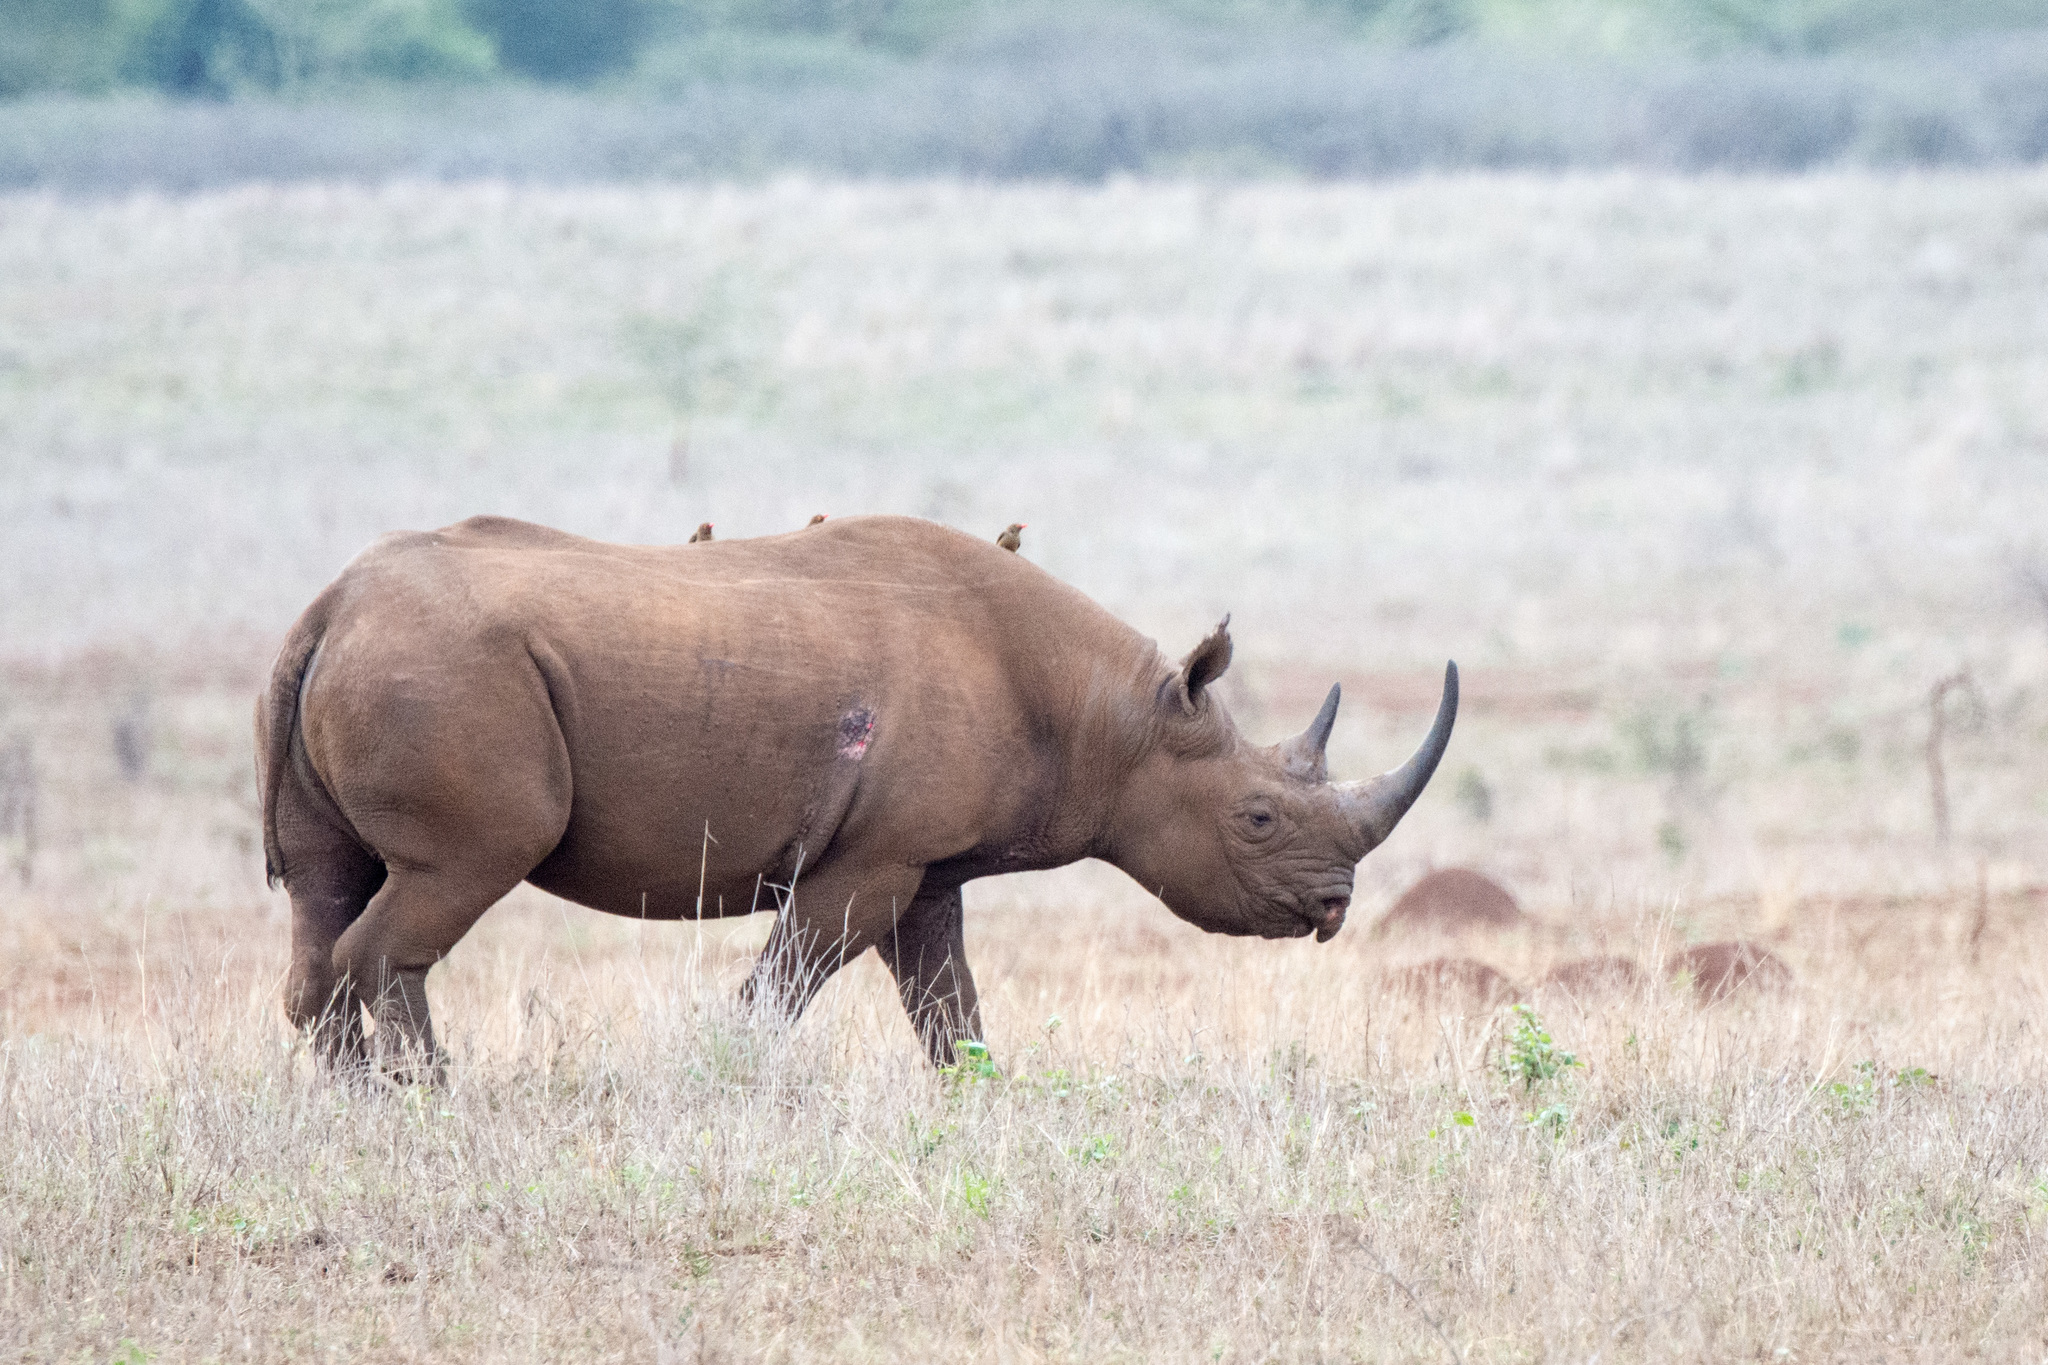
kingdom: Animalia
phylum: Chordata
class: Mammalia
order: Perissodactyla
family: Rhinocerotidae
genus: Diceros
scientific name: Diceros bicornis
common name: Black rhinoceros
